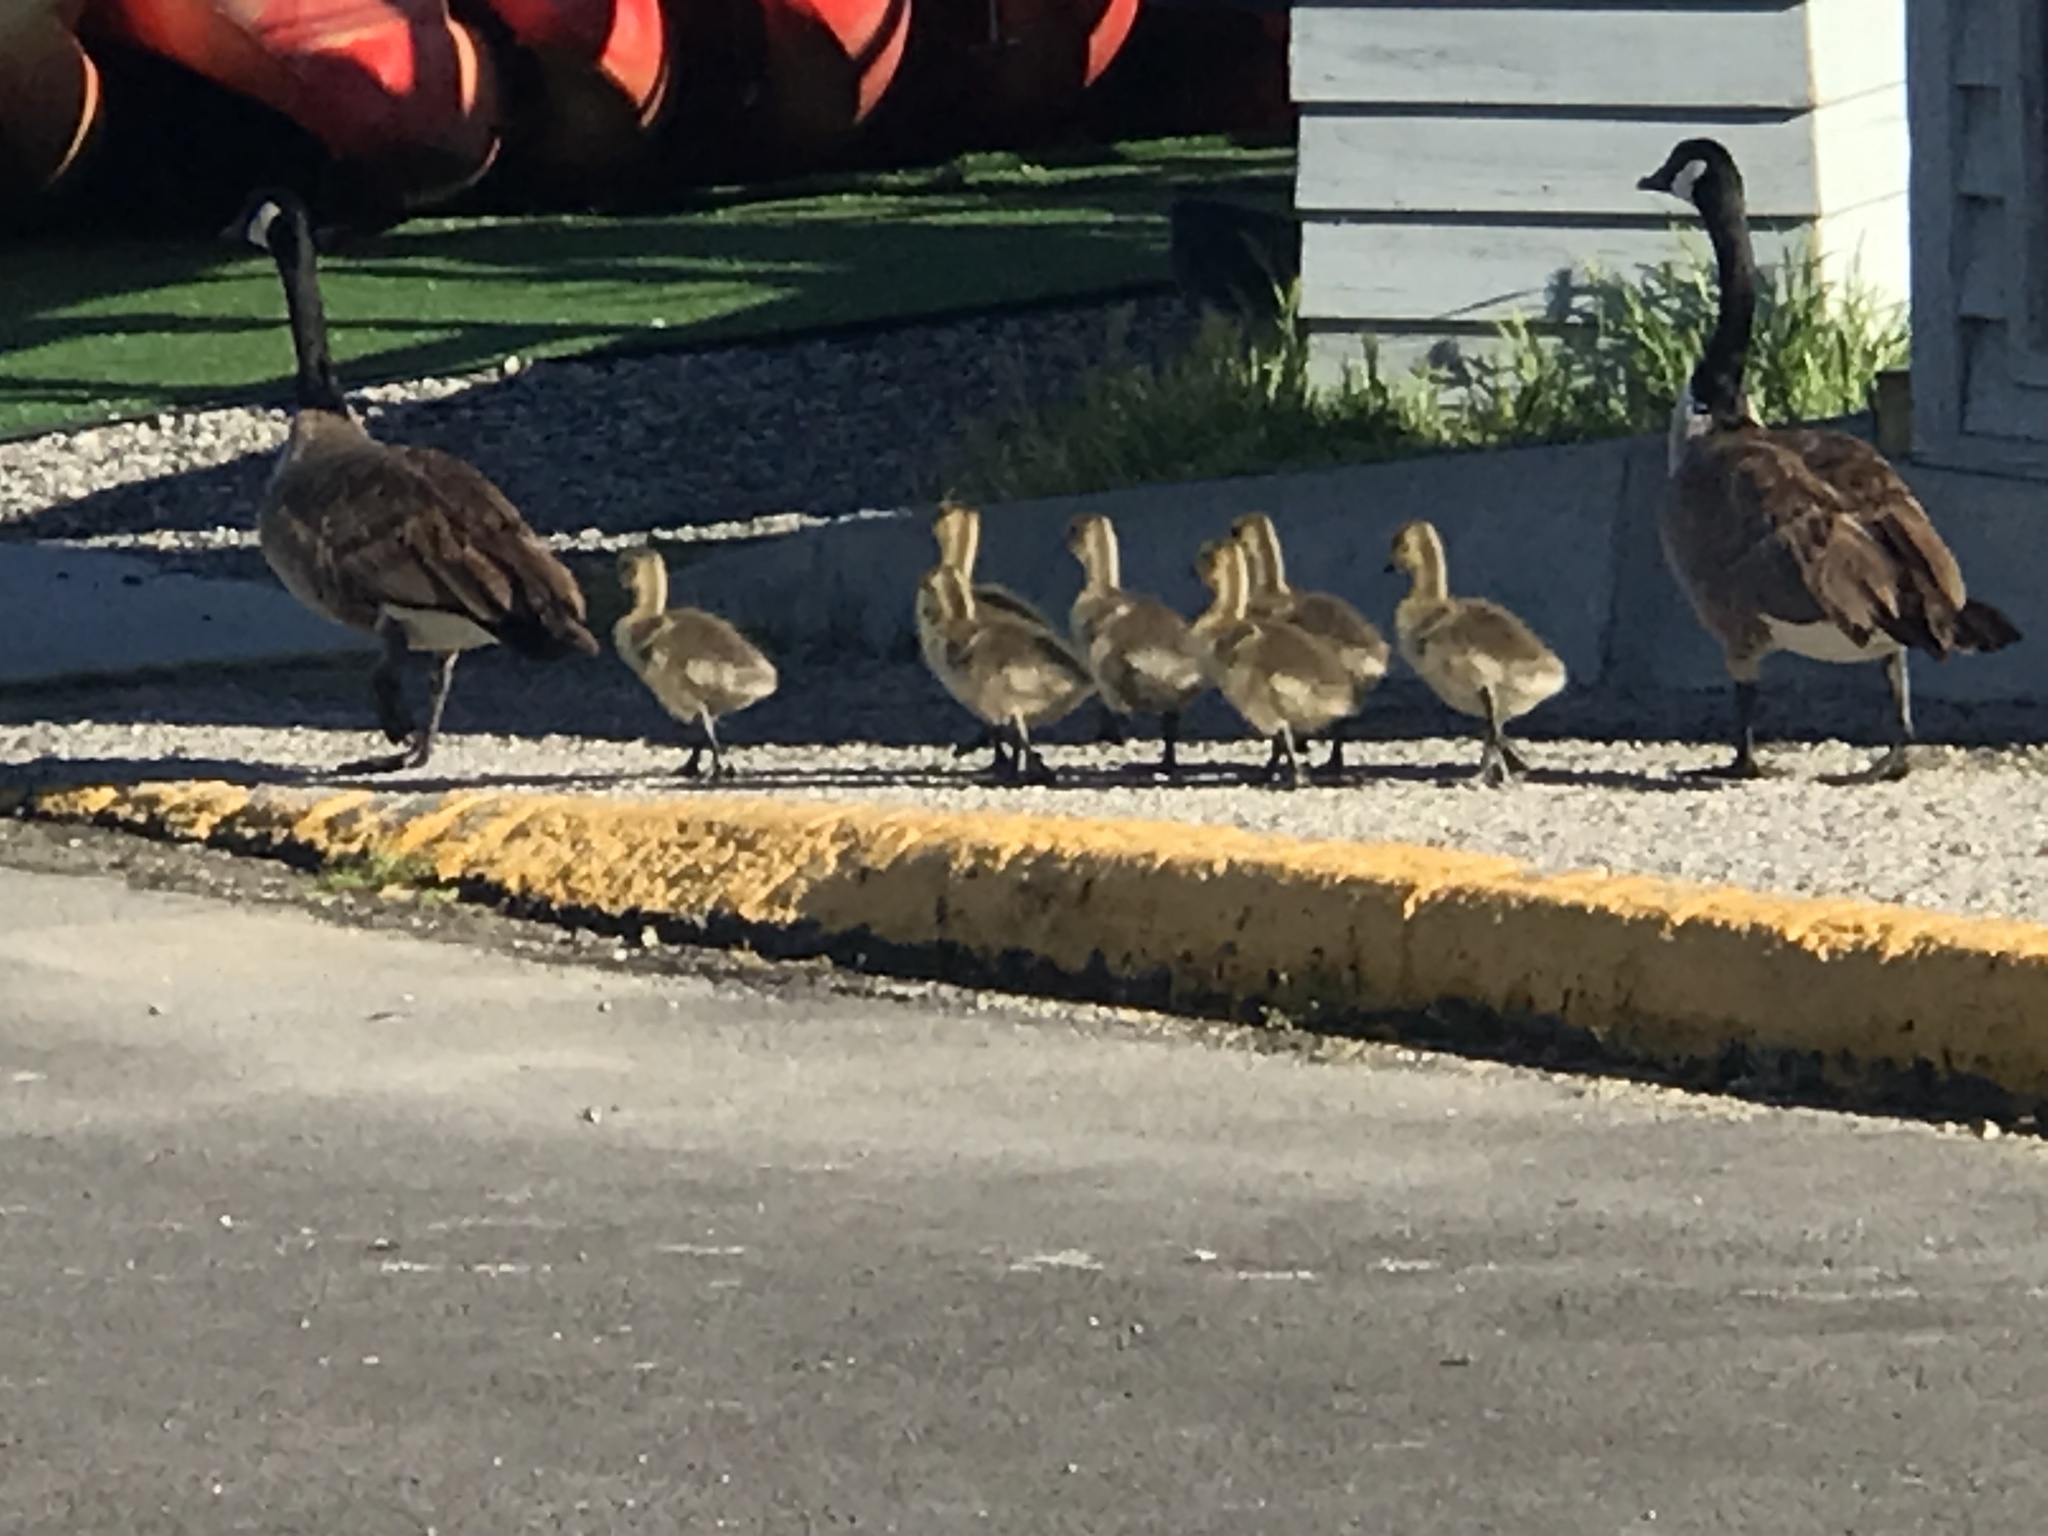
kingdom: Animalia
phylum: Chordata
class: Aves
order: Anseriformes
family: Anatidae
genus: Branta
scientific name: Branta canadensis
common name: Canada goose
